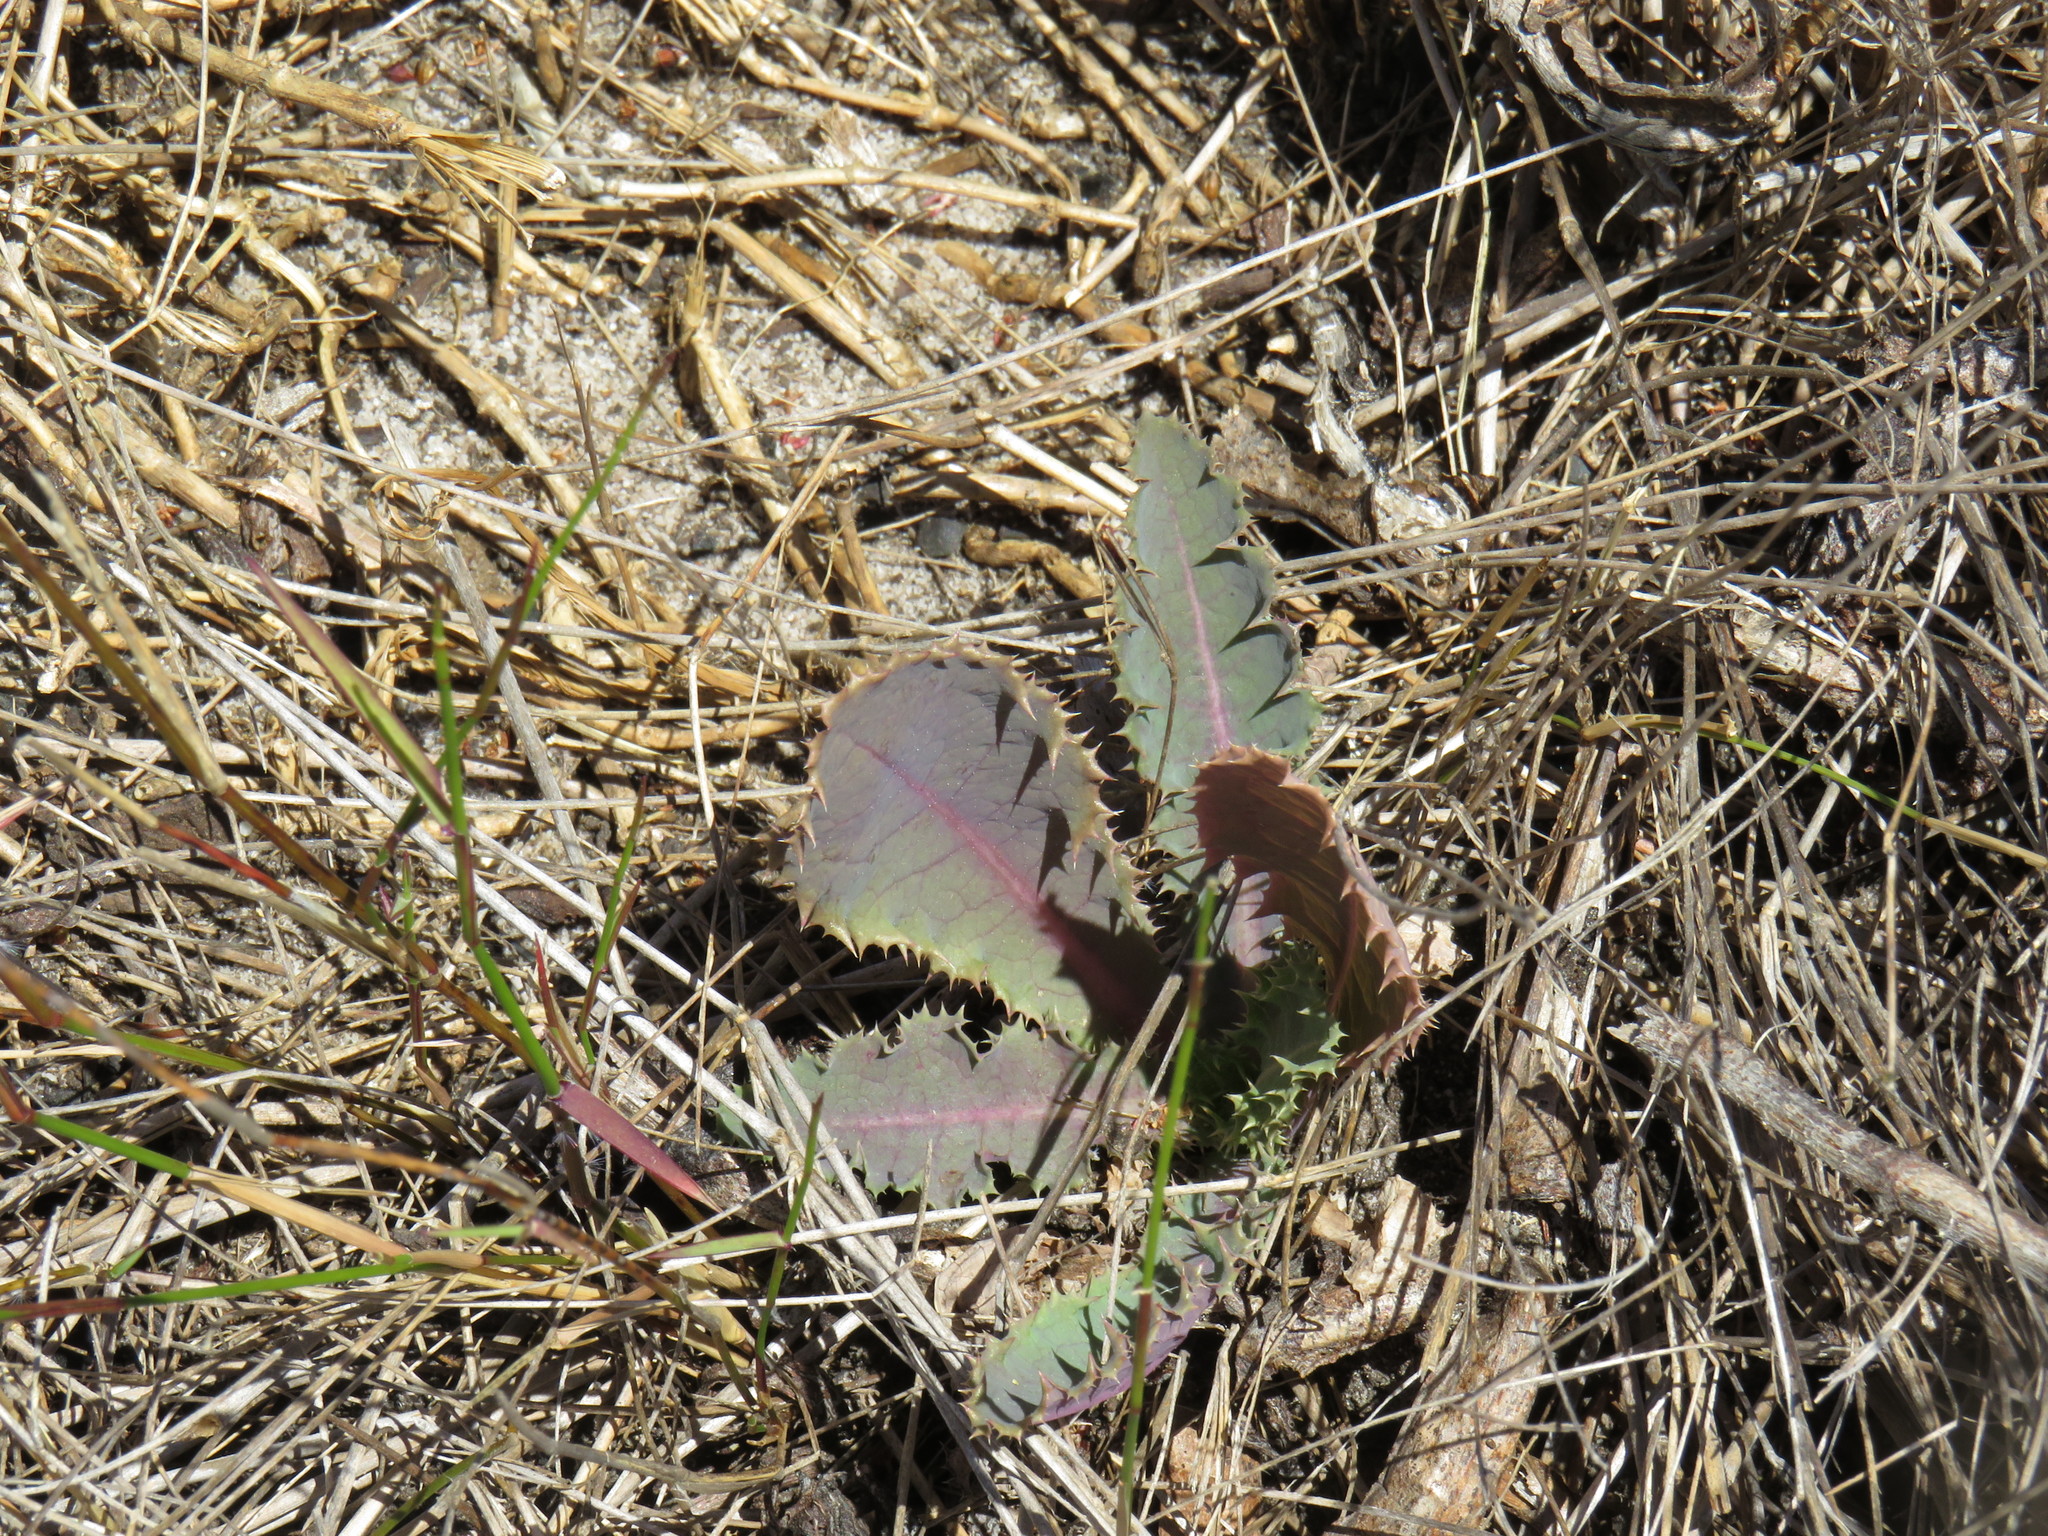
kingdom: Plantae
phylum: Tracheophyta
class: Magnoliopsida
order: Asterales
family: Asteraceae
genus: Sonchus
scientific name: Sonchus asper
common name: Prickly sow-thistle
